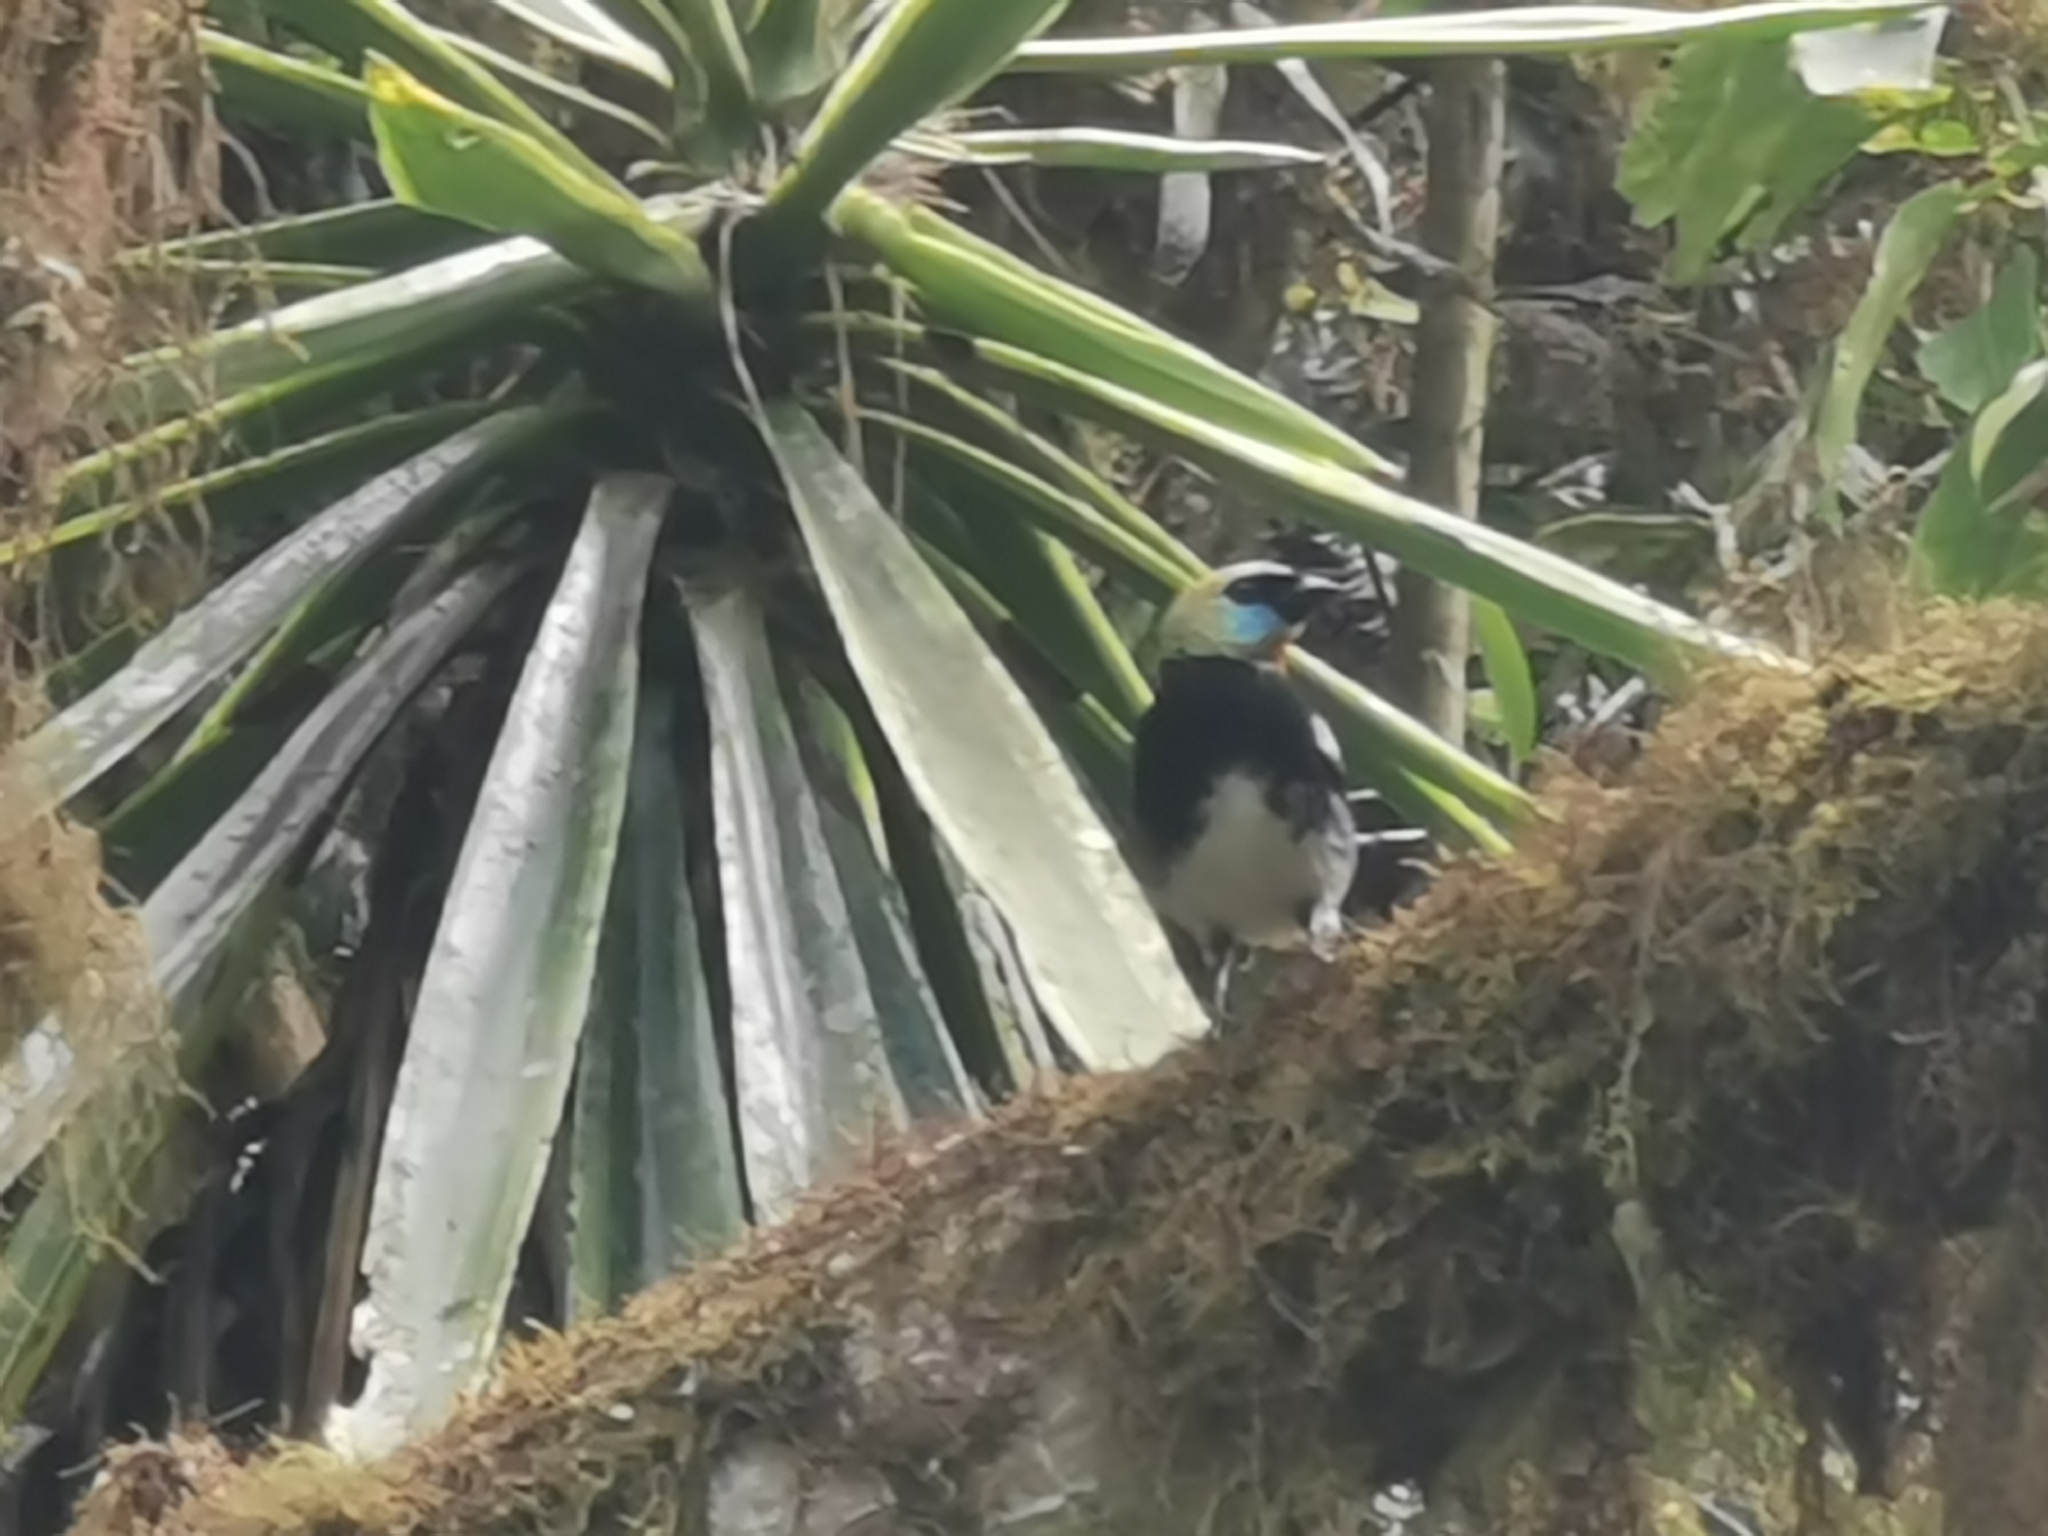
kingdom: Animalia
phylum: Chordata
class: Aves
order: Passeriformes
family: Thraupidae
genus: Stilpnia
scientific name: Stilpnia larvata
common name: Golden-hooded tanager
